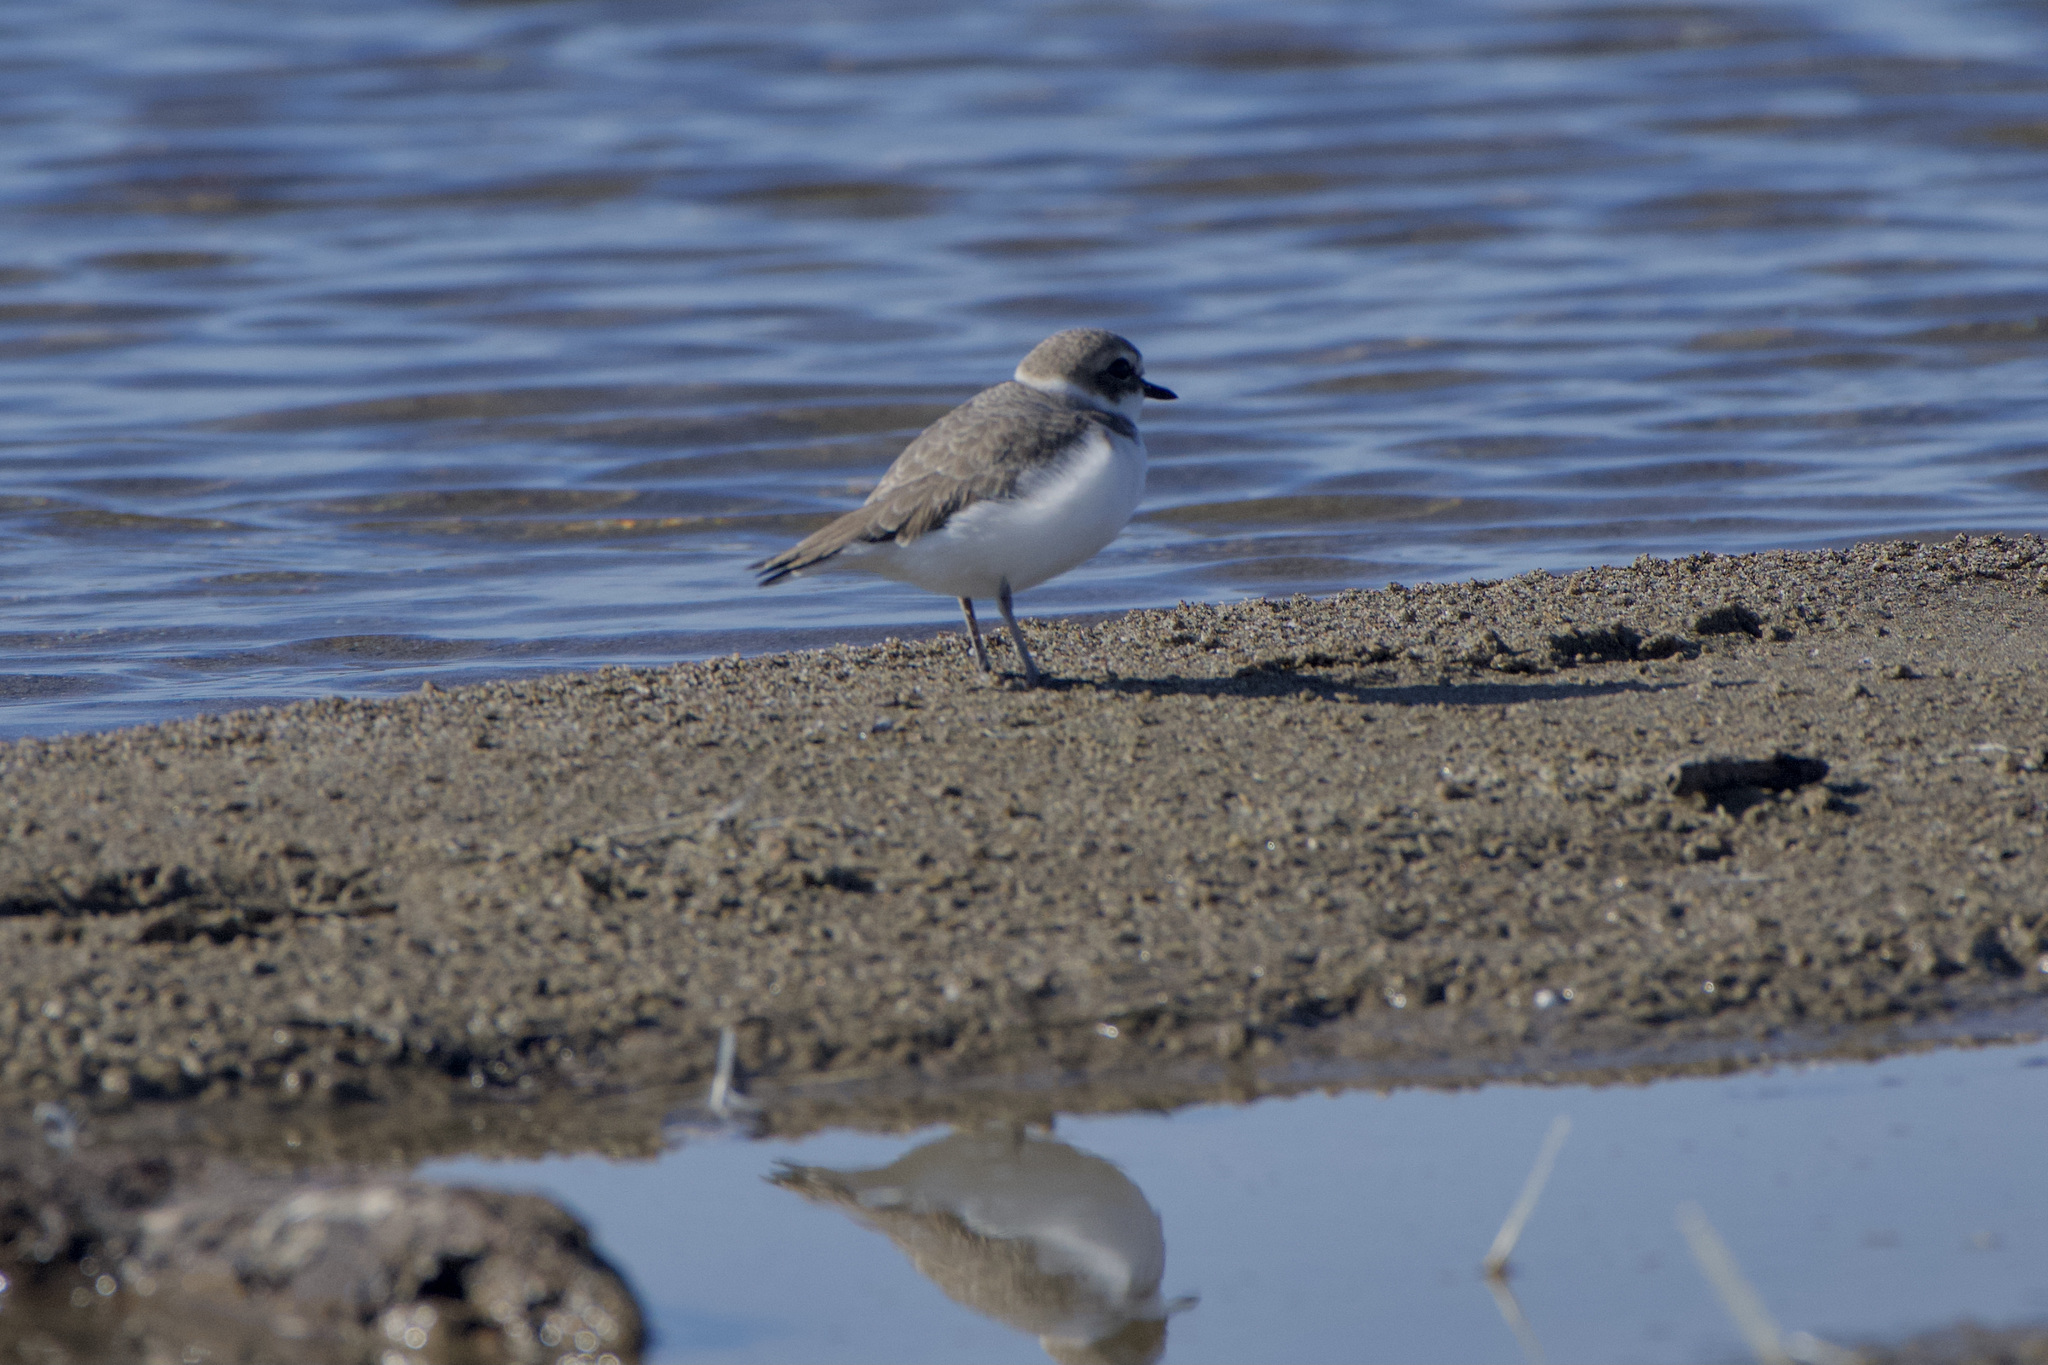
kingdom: Animalia
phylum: Chordata
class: Aves
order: Charadriiformes
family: Charadriidae
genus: Anarhynchus
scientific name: Anarhynchus
